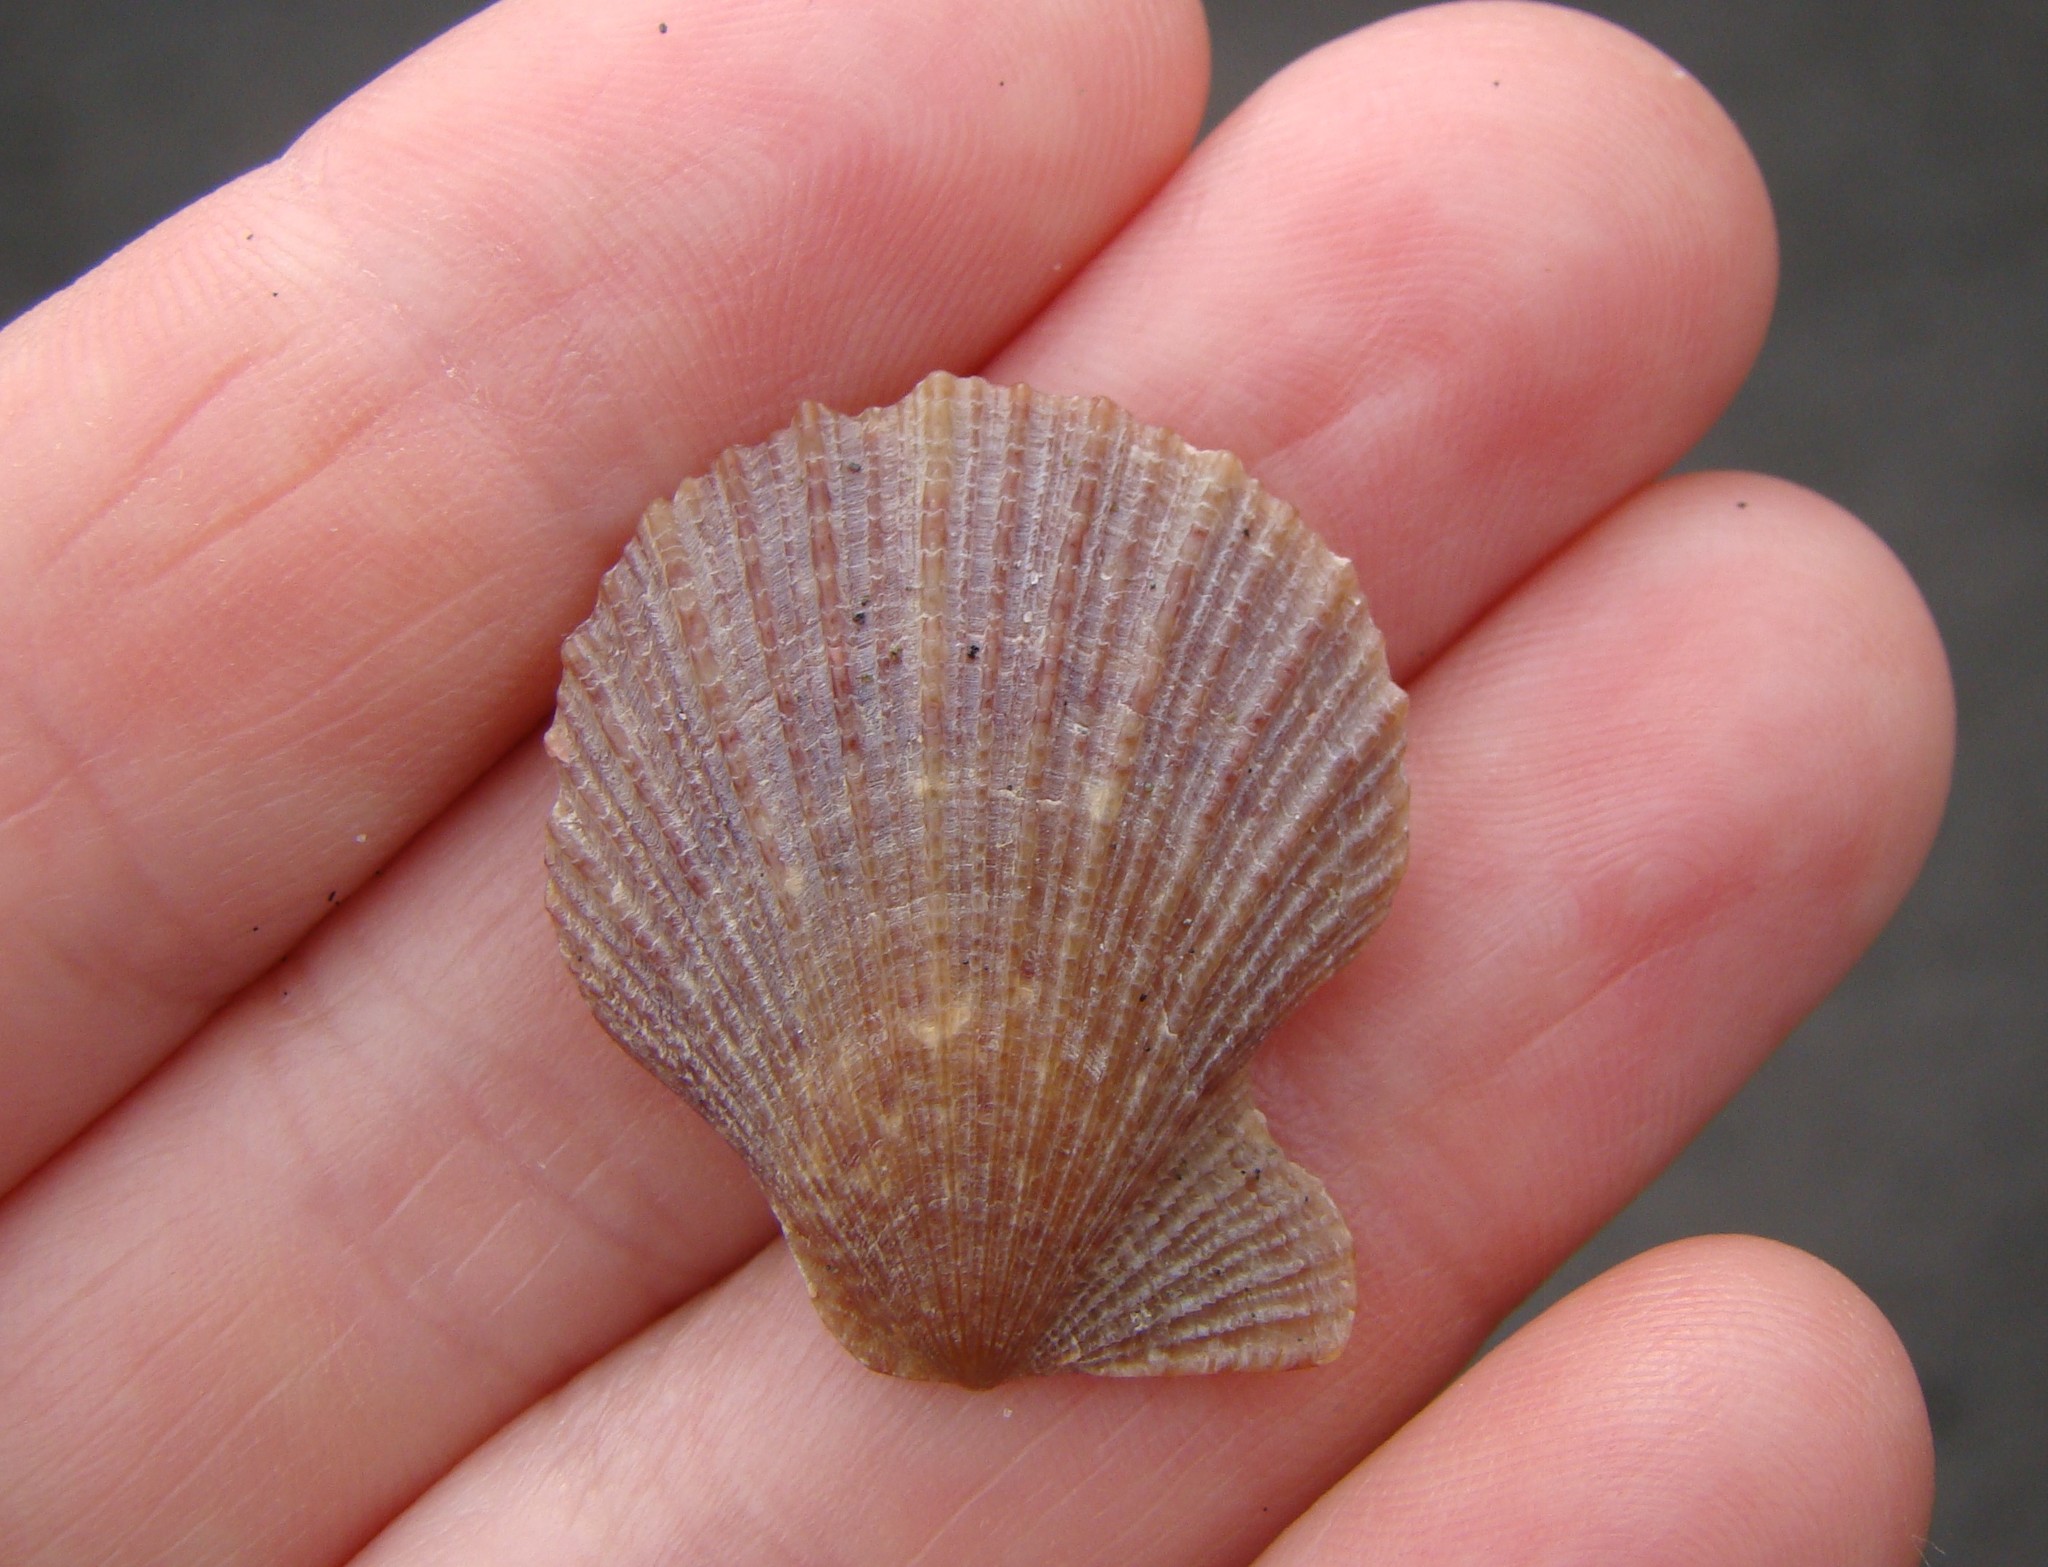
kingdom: Animalia
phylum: Mollusca
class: Bivalvia
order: Pectinida
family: Pectinidae
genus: Talochlamys
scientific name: Talochlamys zelandiae
